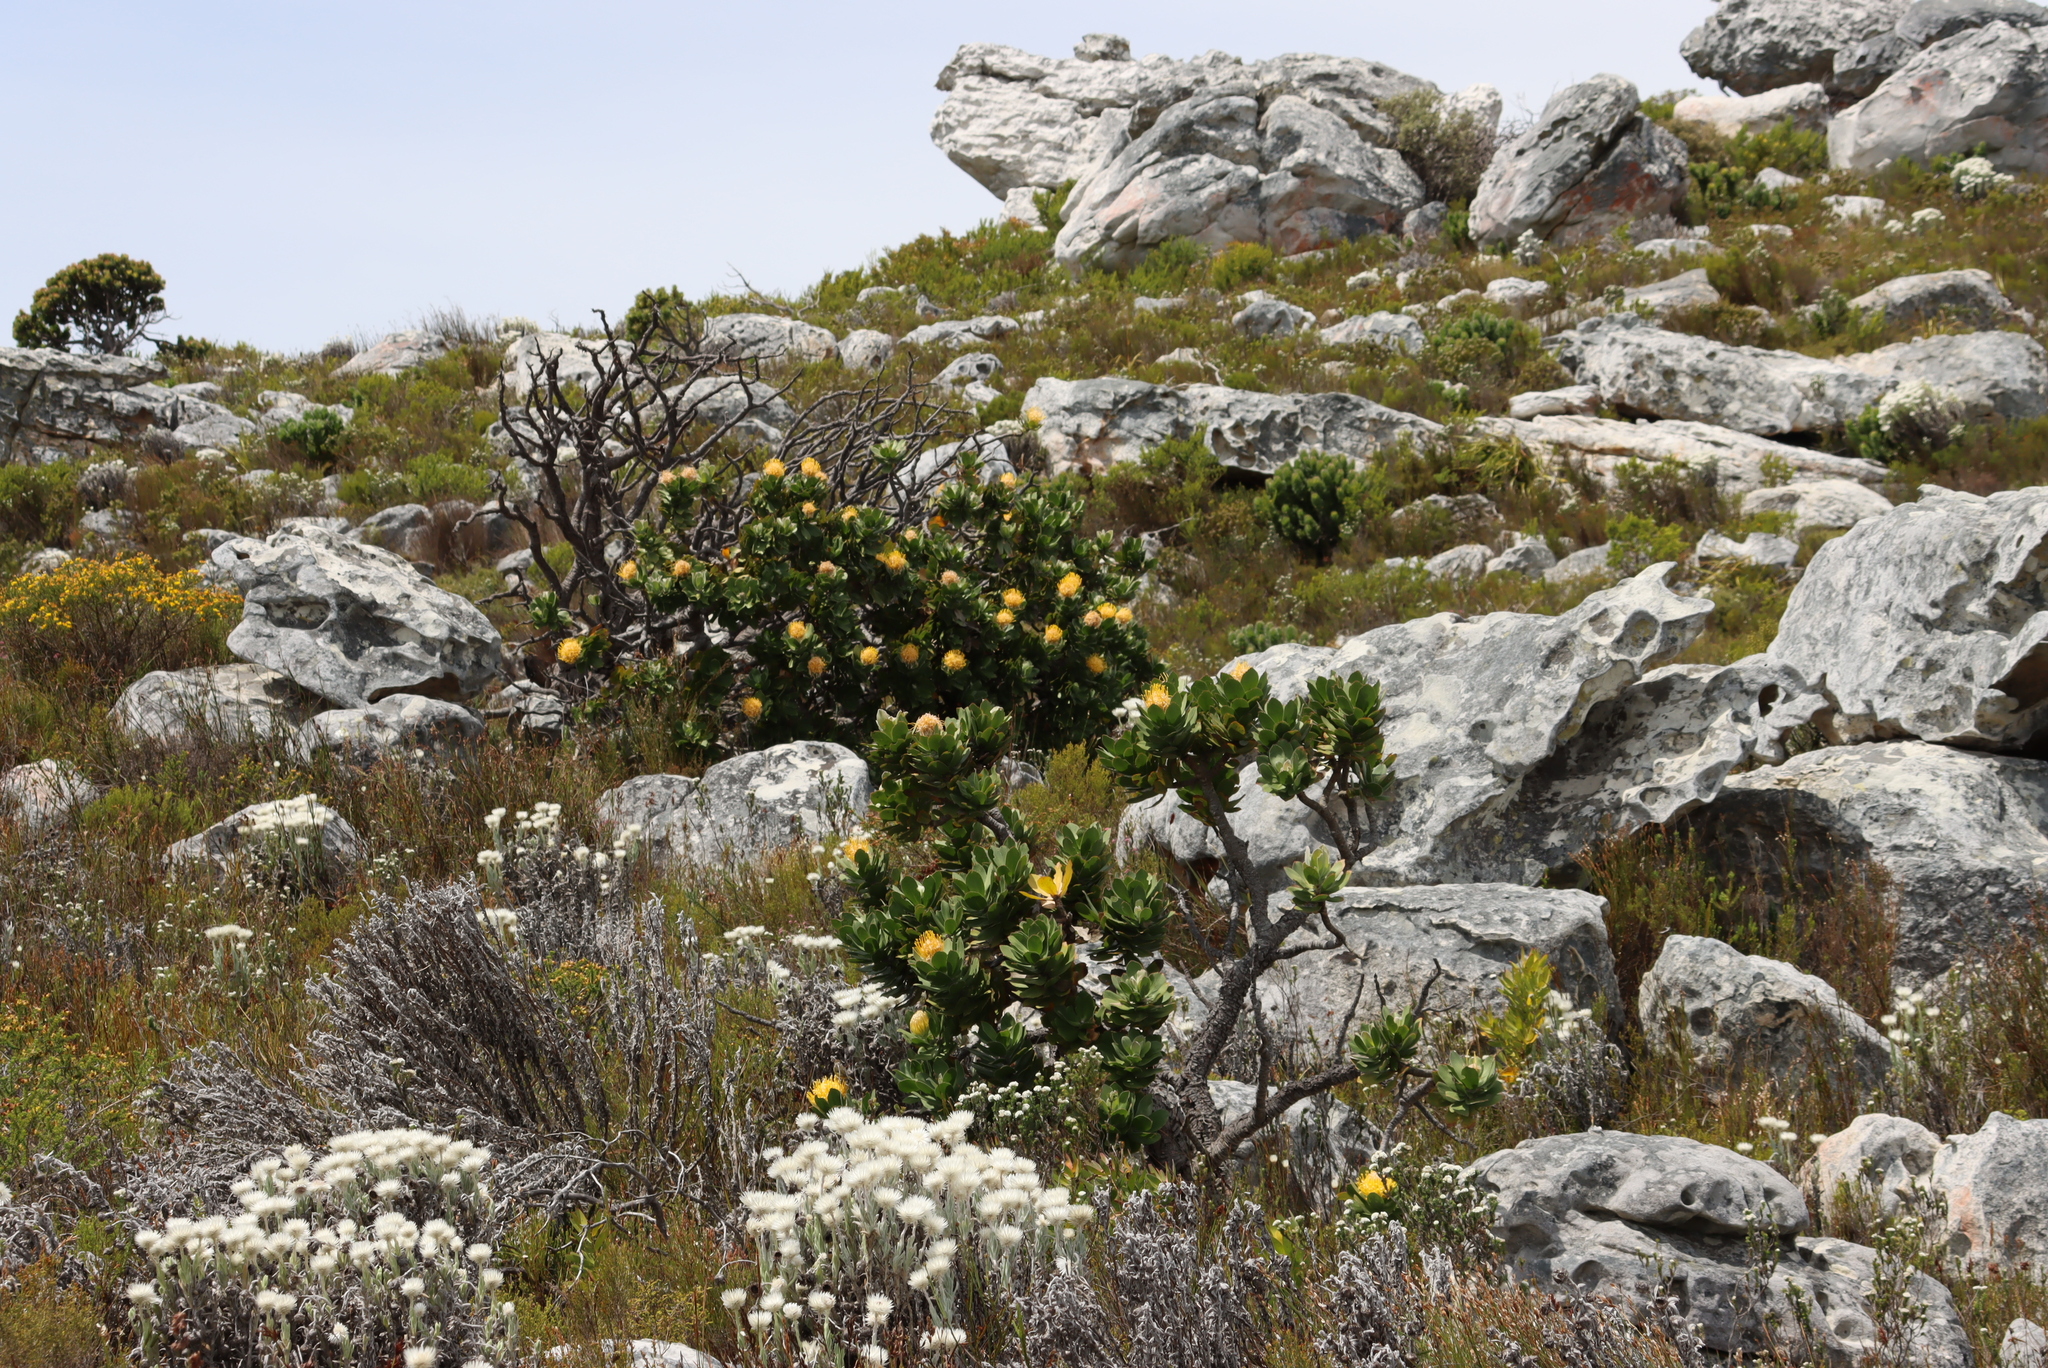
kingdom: Plantae
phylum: Tracheophyta
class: Magnoliopsida
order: Proteales
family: Proteaceae
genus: Leucospermum
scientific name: Leucospermum conocarpodendron
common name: Tree pincushion
